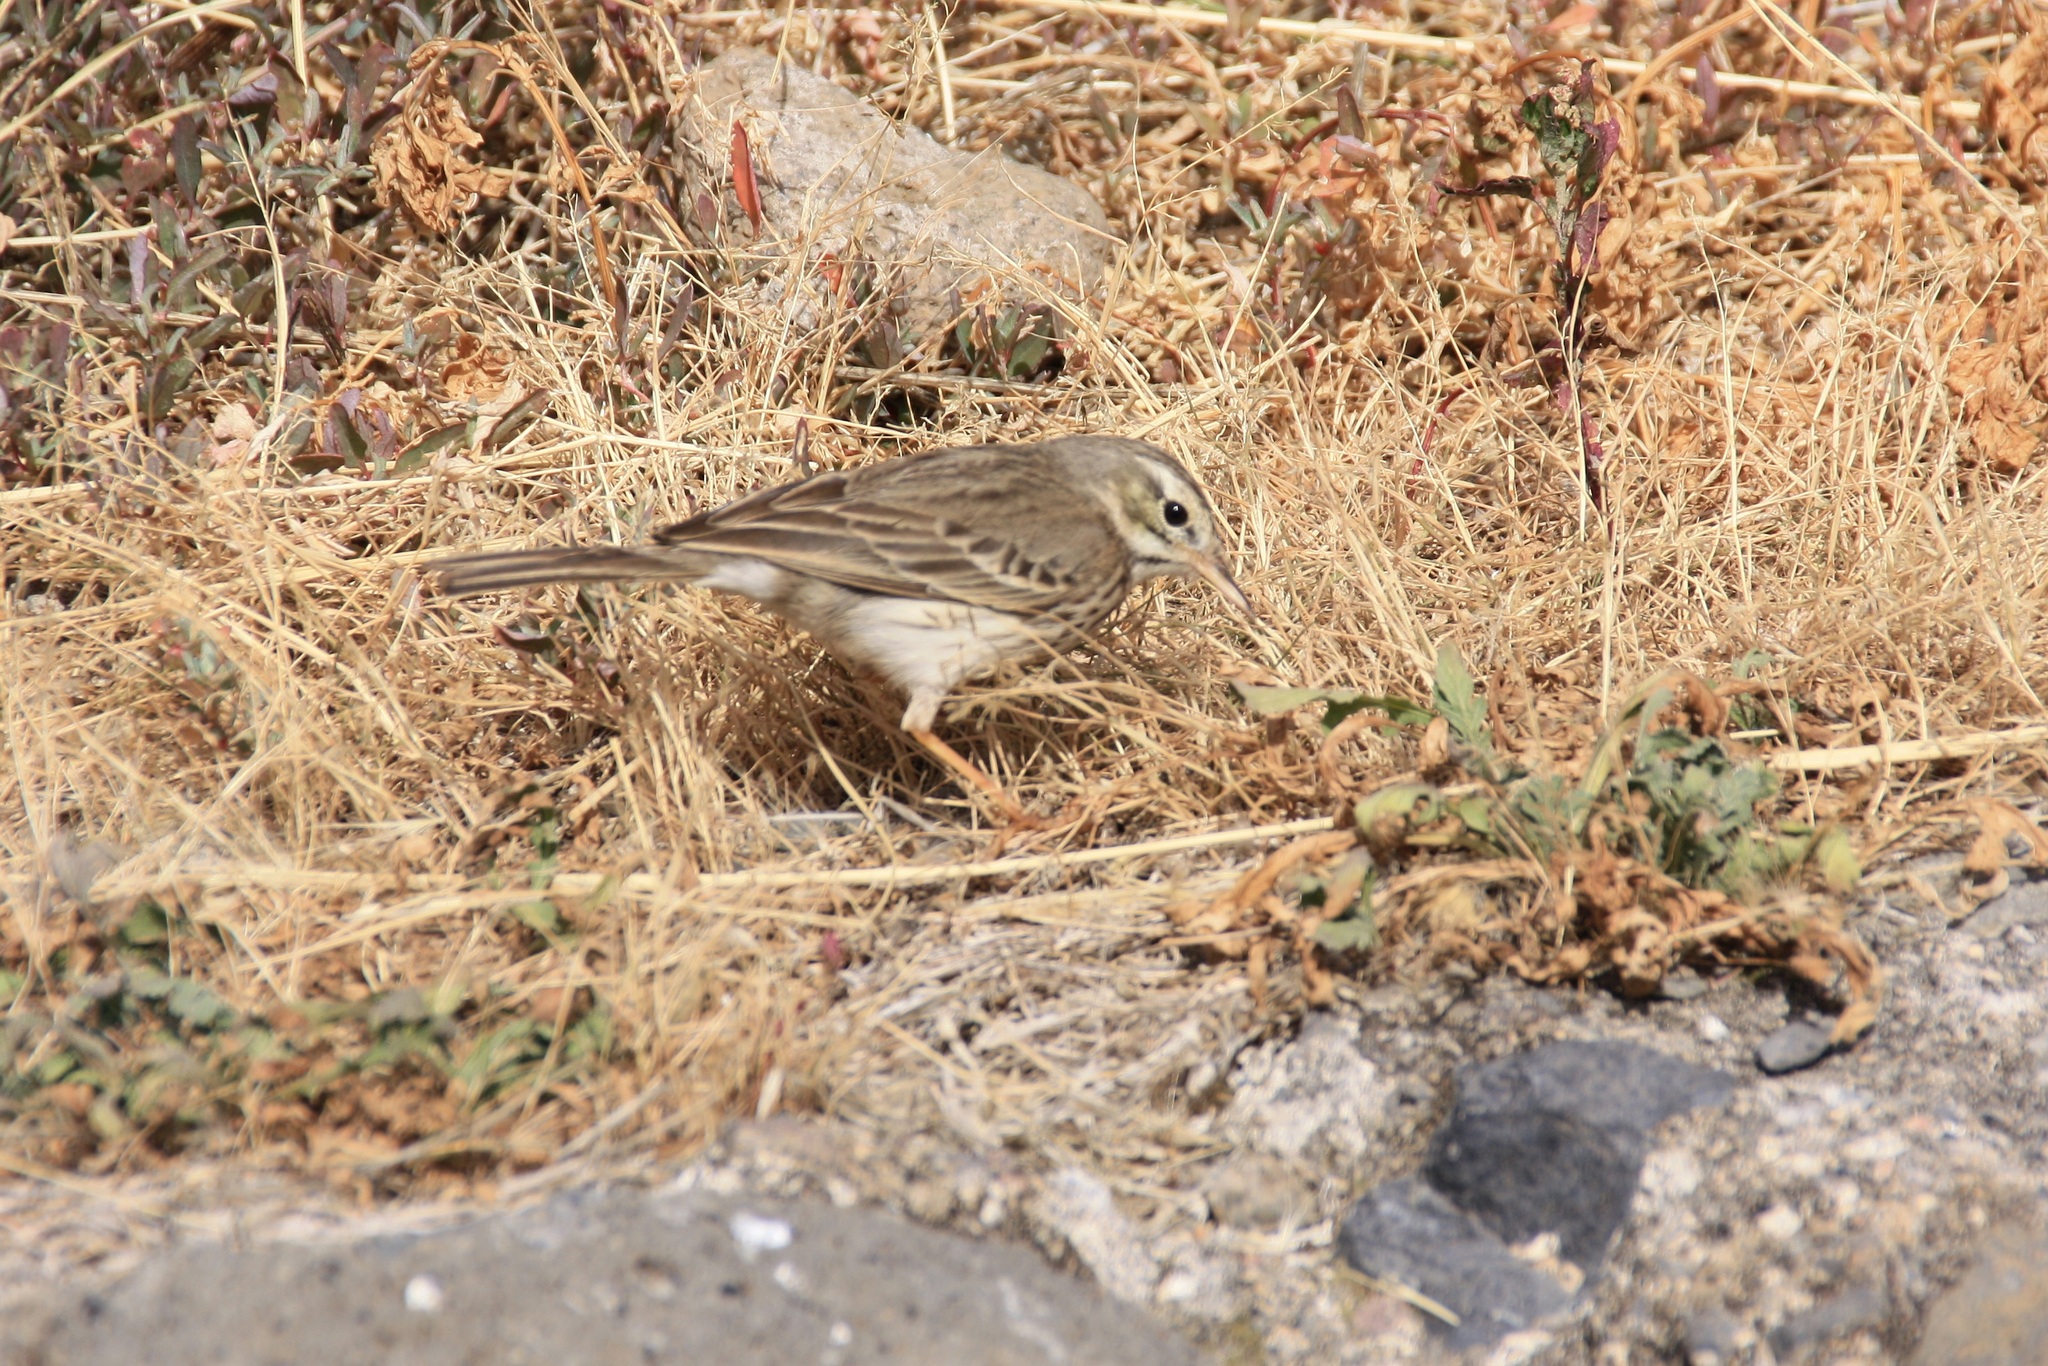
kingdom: Animalia
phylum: Chordata
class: Aves
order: Passeriformes
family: Motacillidae
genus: Anthus
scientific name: Anthus berthelotii
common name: Berthelot's pipit
